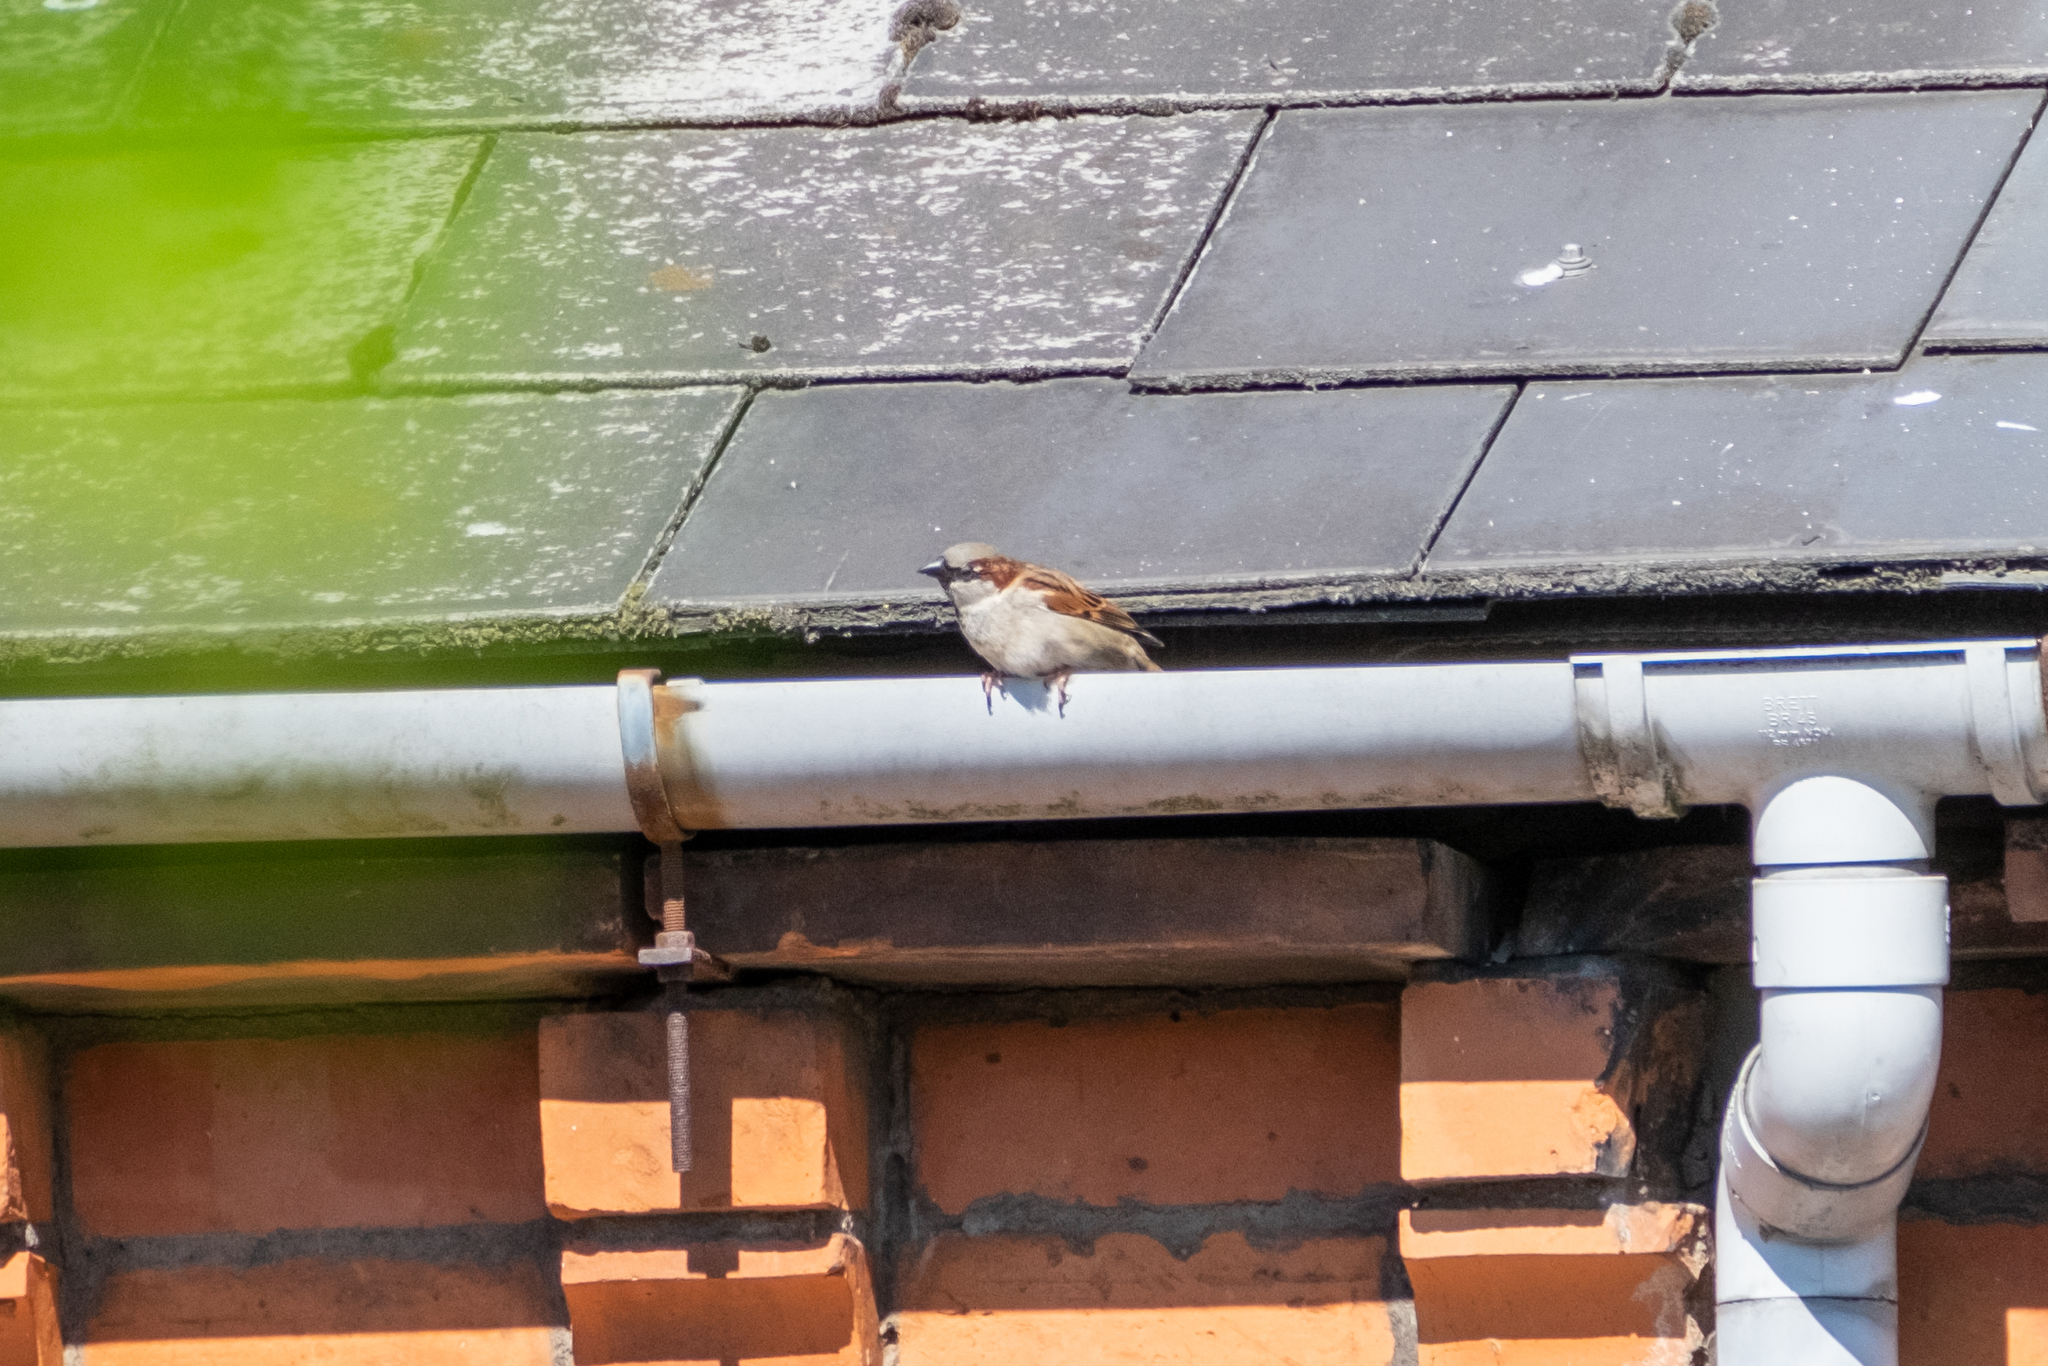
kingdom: Animalia
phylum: Chordata
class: Aves
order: Passeriformes
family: Passeridae
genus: Passer
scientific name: Passer domesticus
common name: House sparrow
